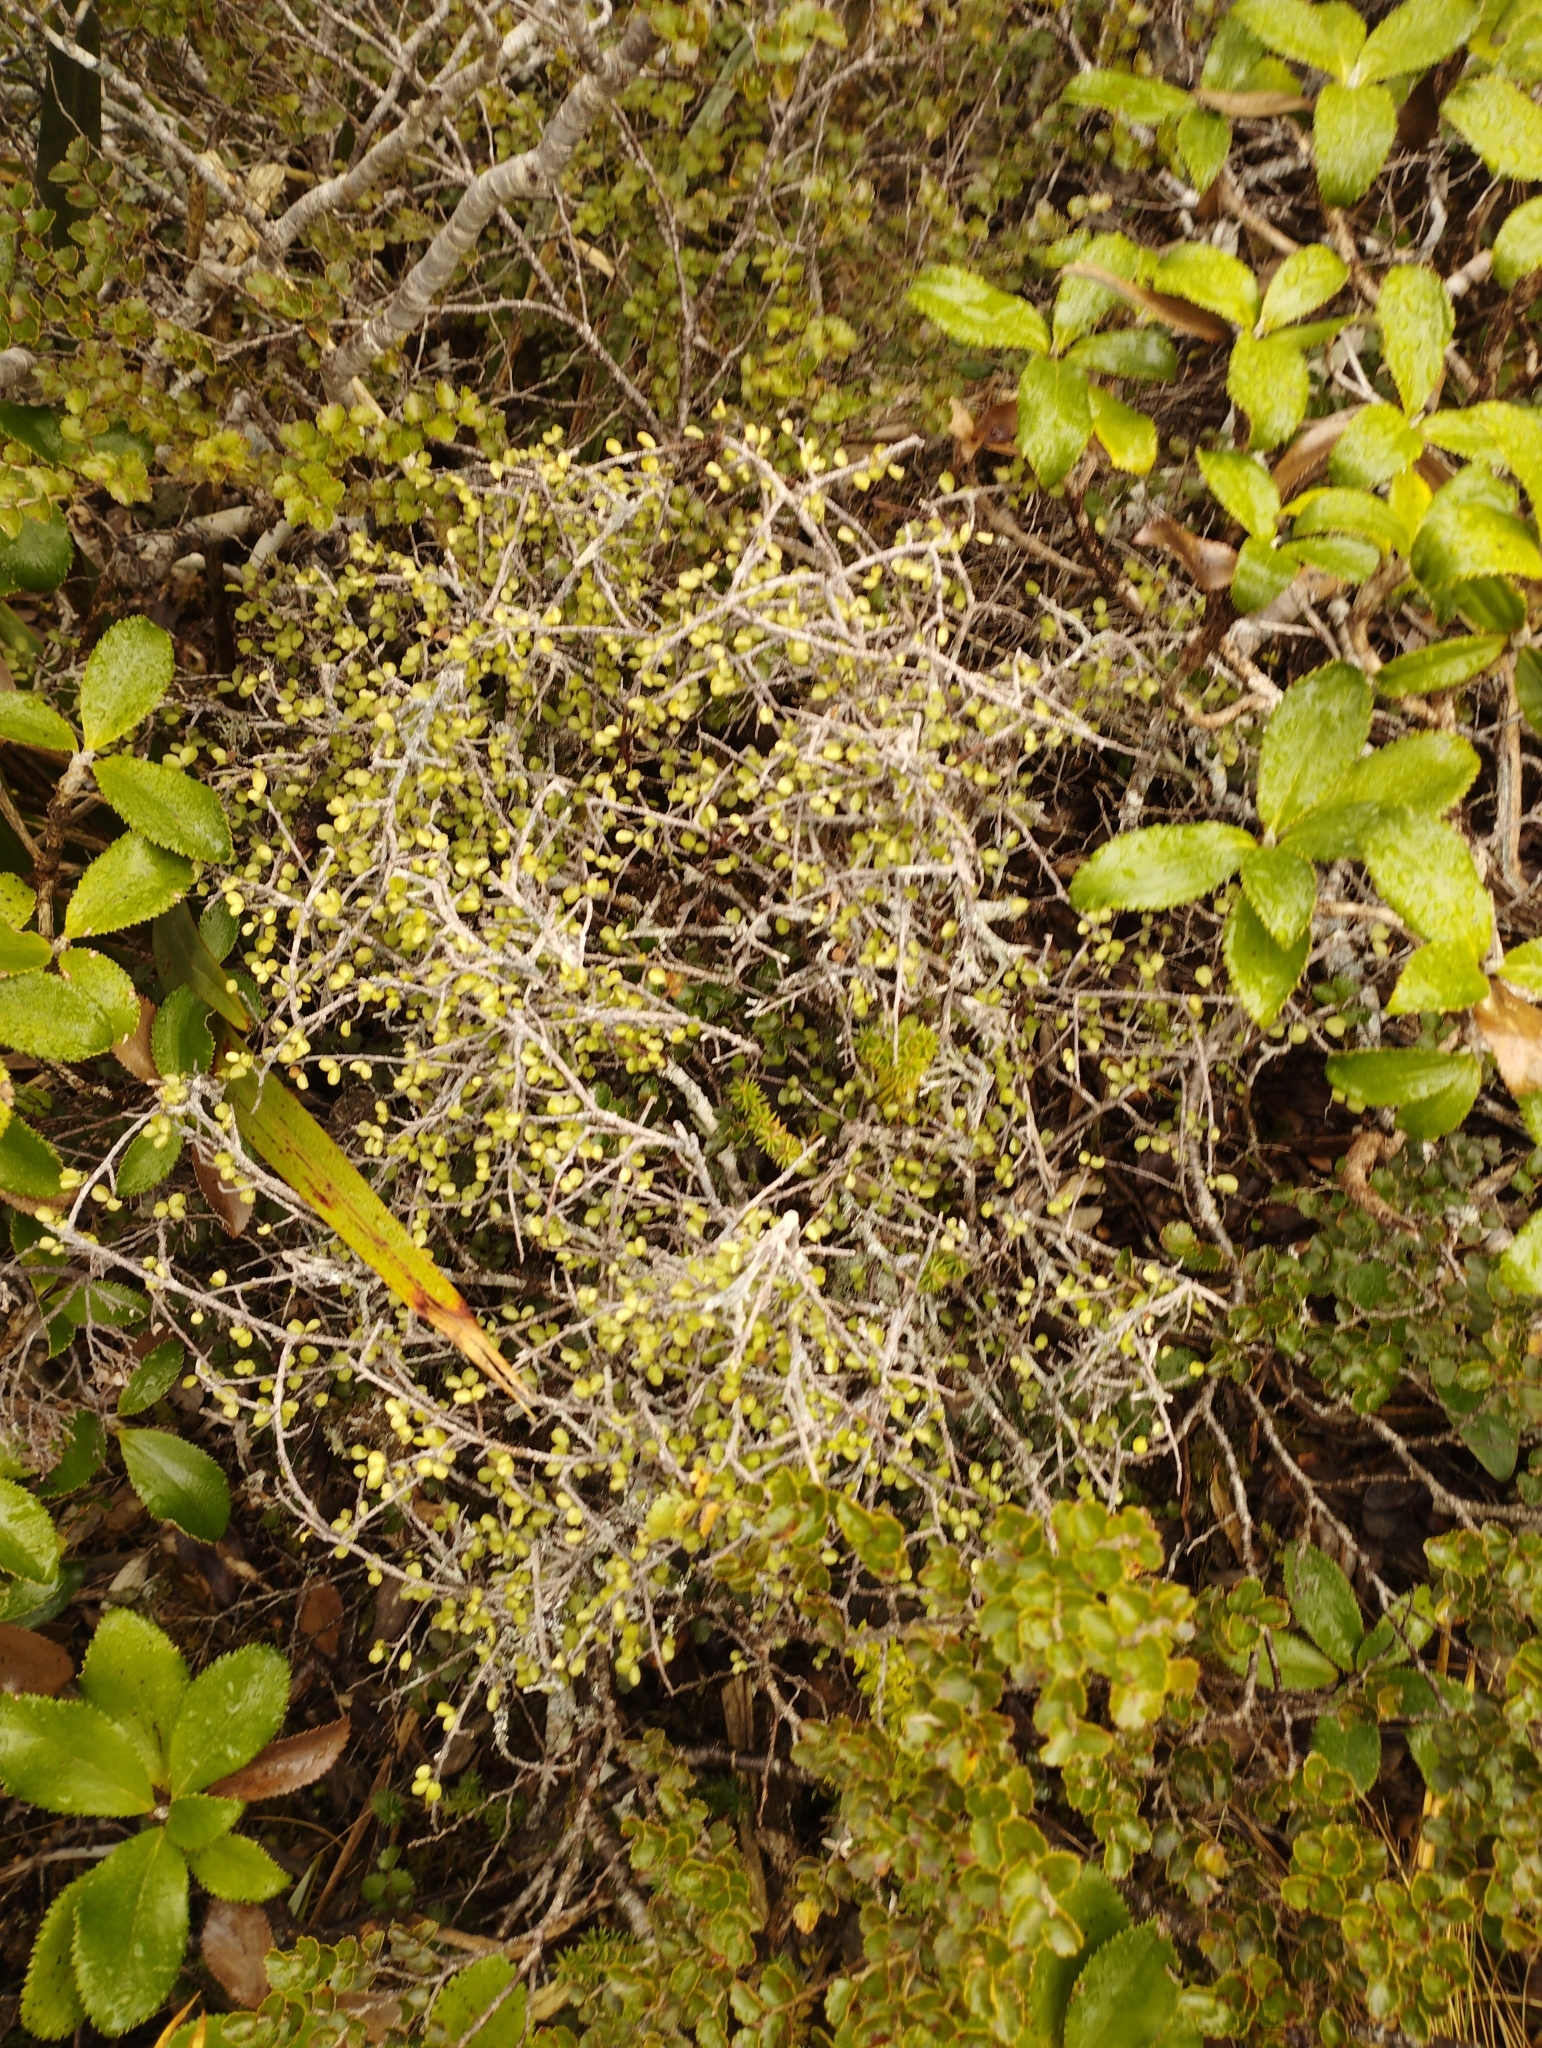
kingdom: Plantae
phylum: Tracheophyta
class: Magnoliopsida
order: Ericales
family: Primulaceae
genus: Myrsine
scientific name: Myrsine divaricata
